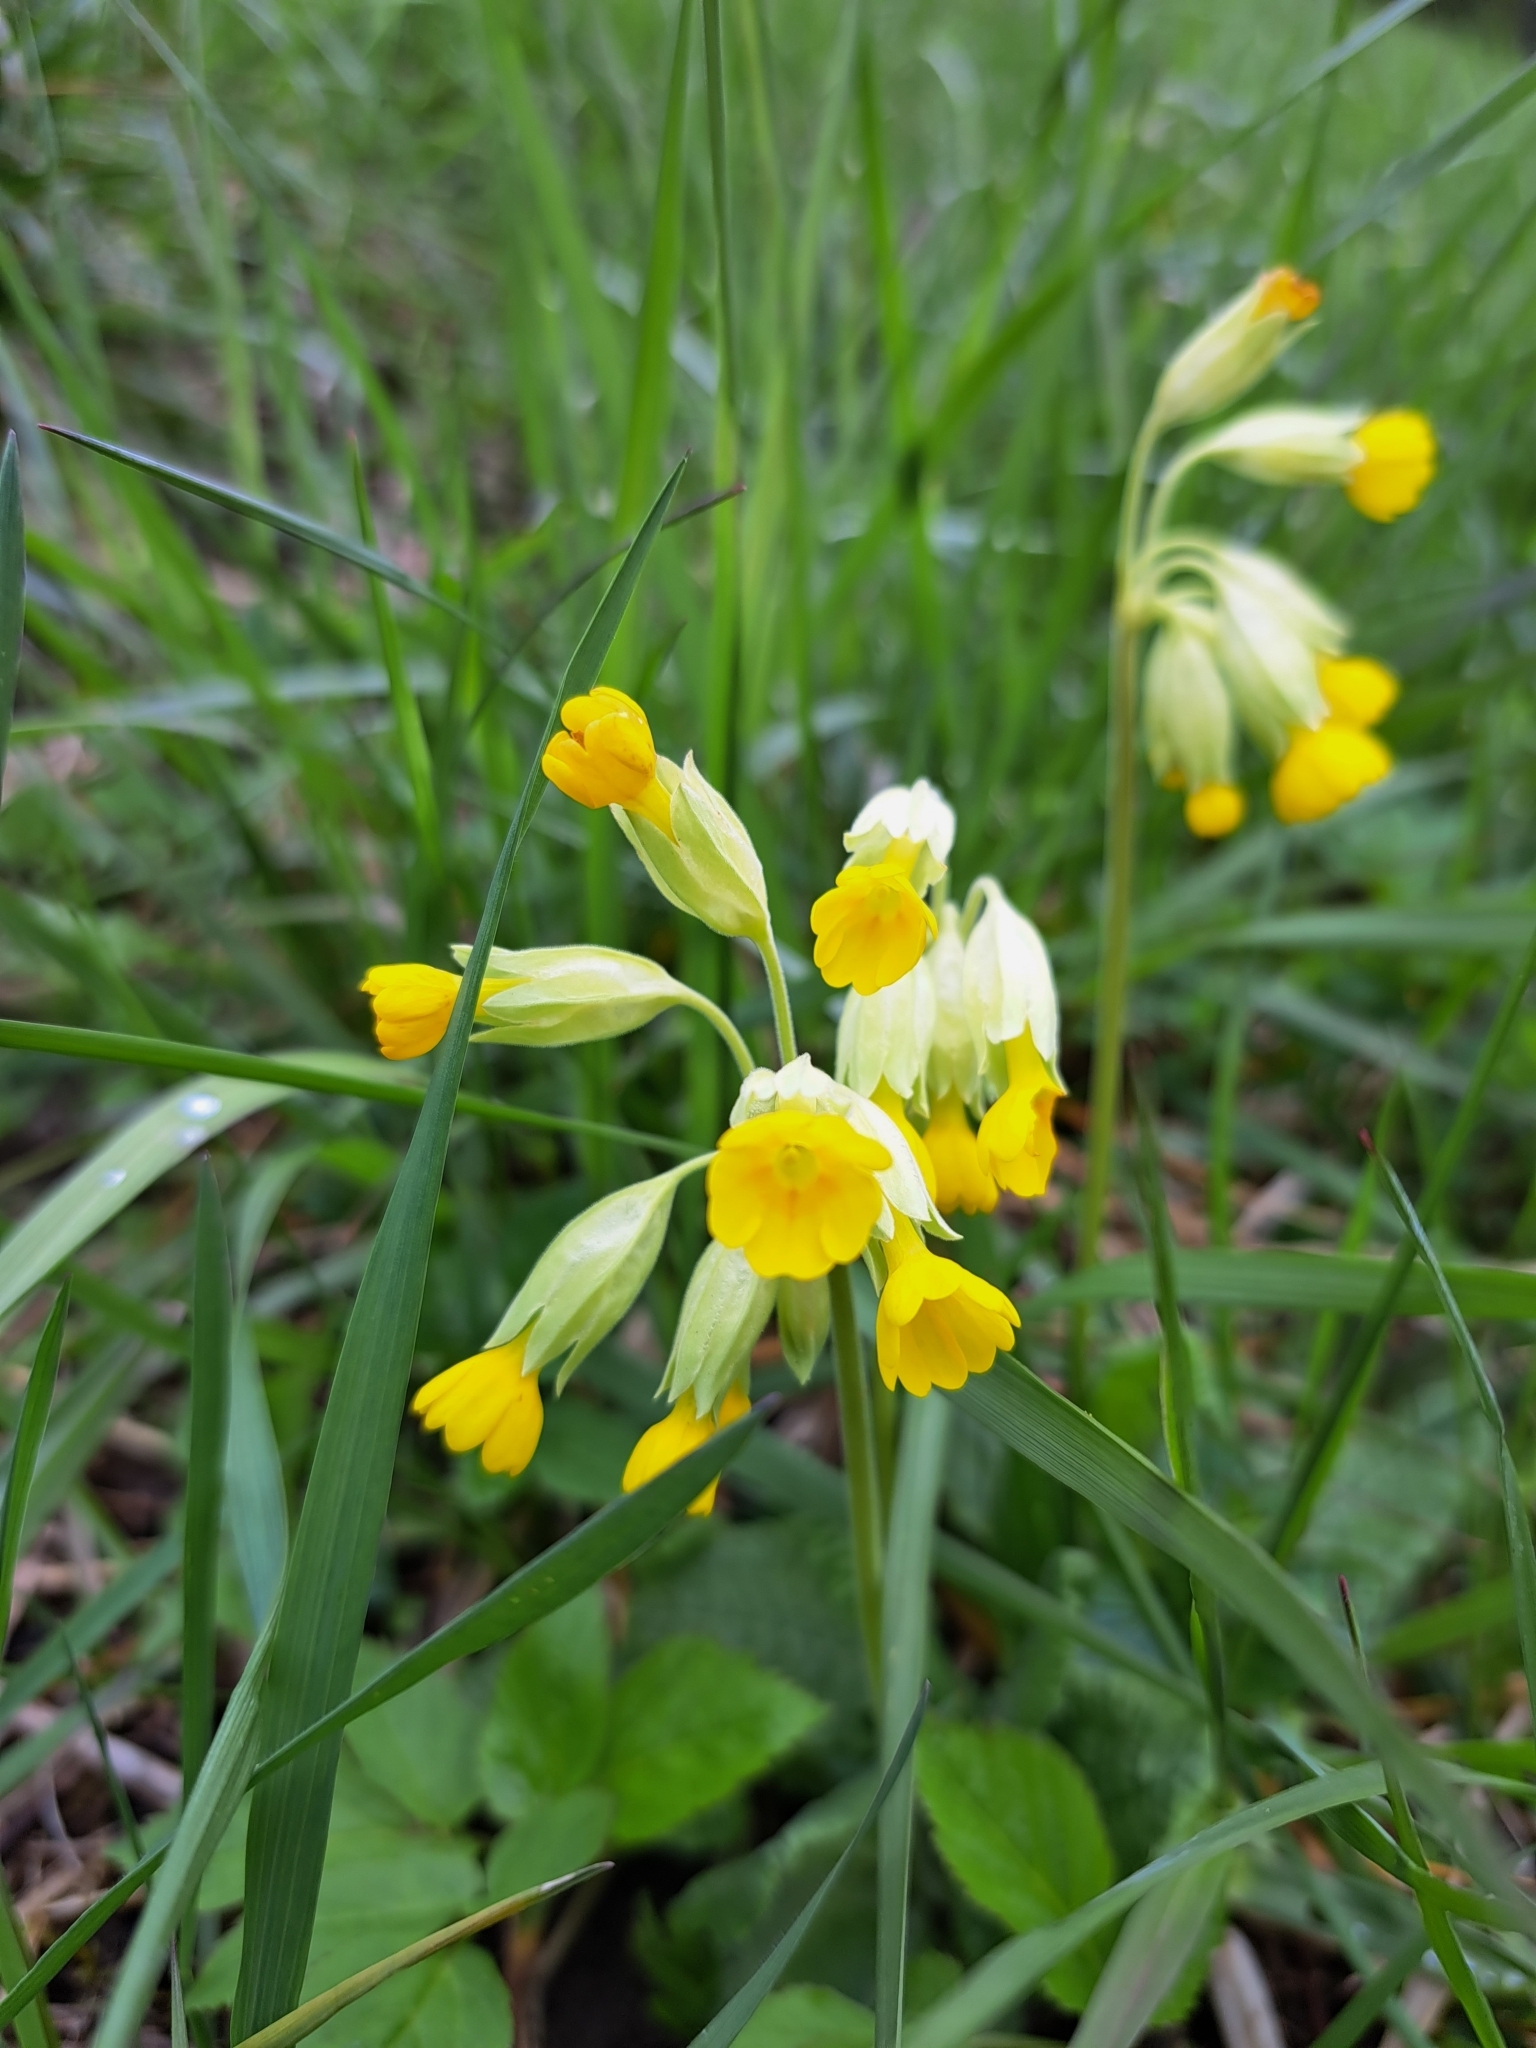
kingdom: Plantae
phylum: Tracheophyta
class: Magnoliopsida
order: Ericales
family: Primulaceae
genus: Primula
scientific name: Primula veris
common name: Cowslip
